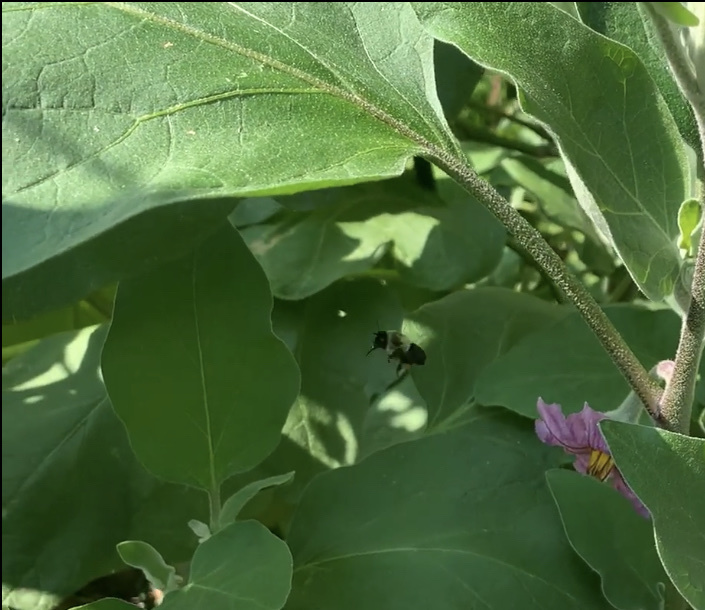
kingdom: Animalia
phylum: Arthropoda
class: Insecta
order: Hymenoptera
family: Apidae
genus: Bombus
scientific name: Bombus impatiens
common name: Common eastern bumble bee
